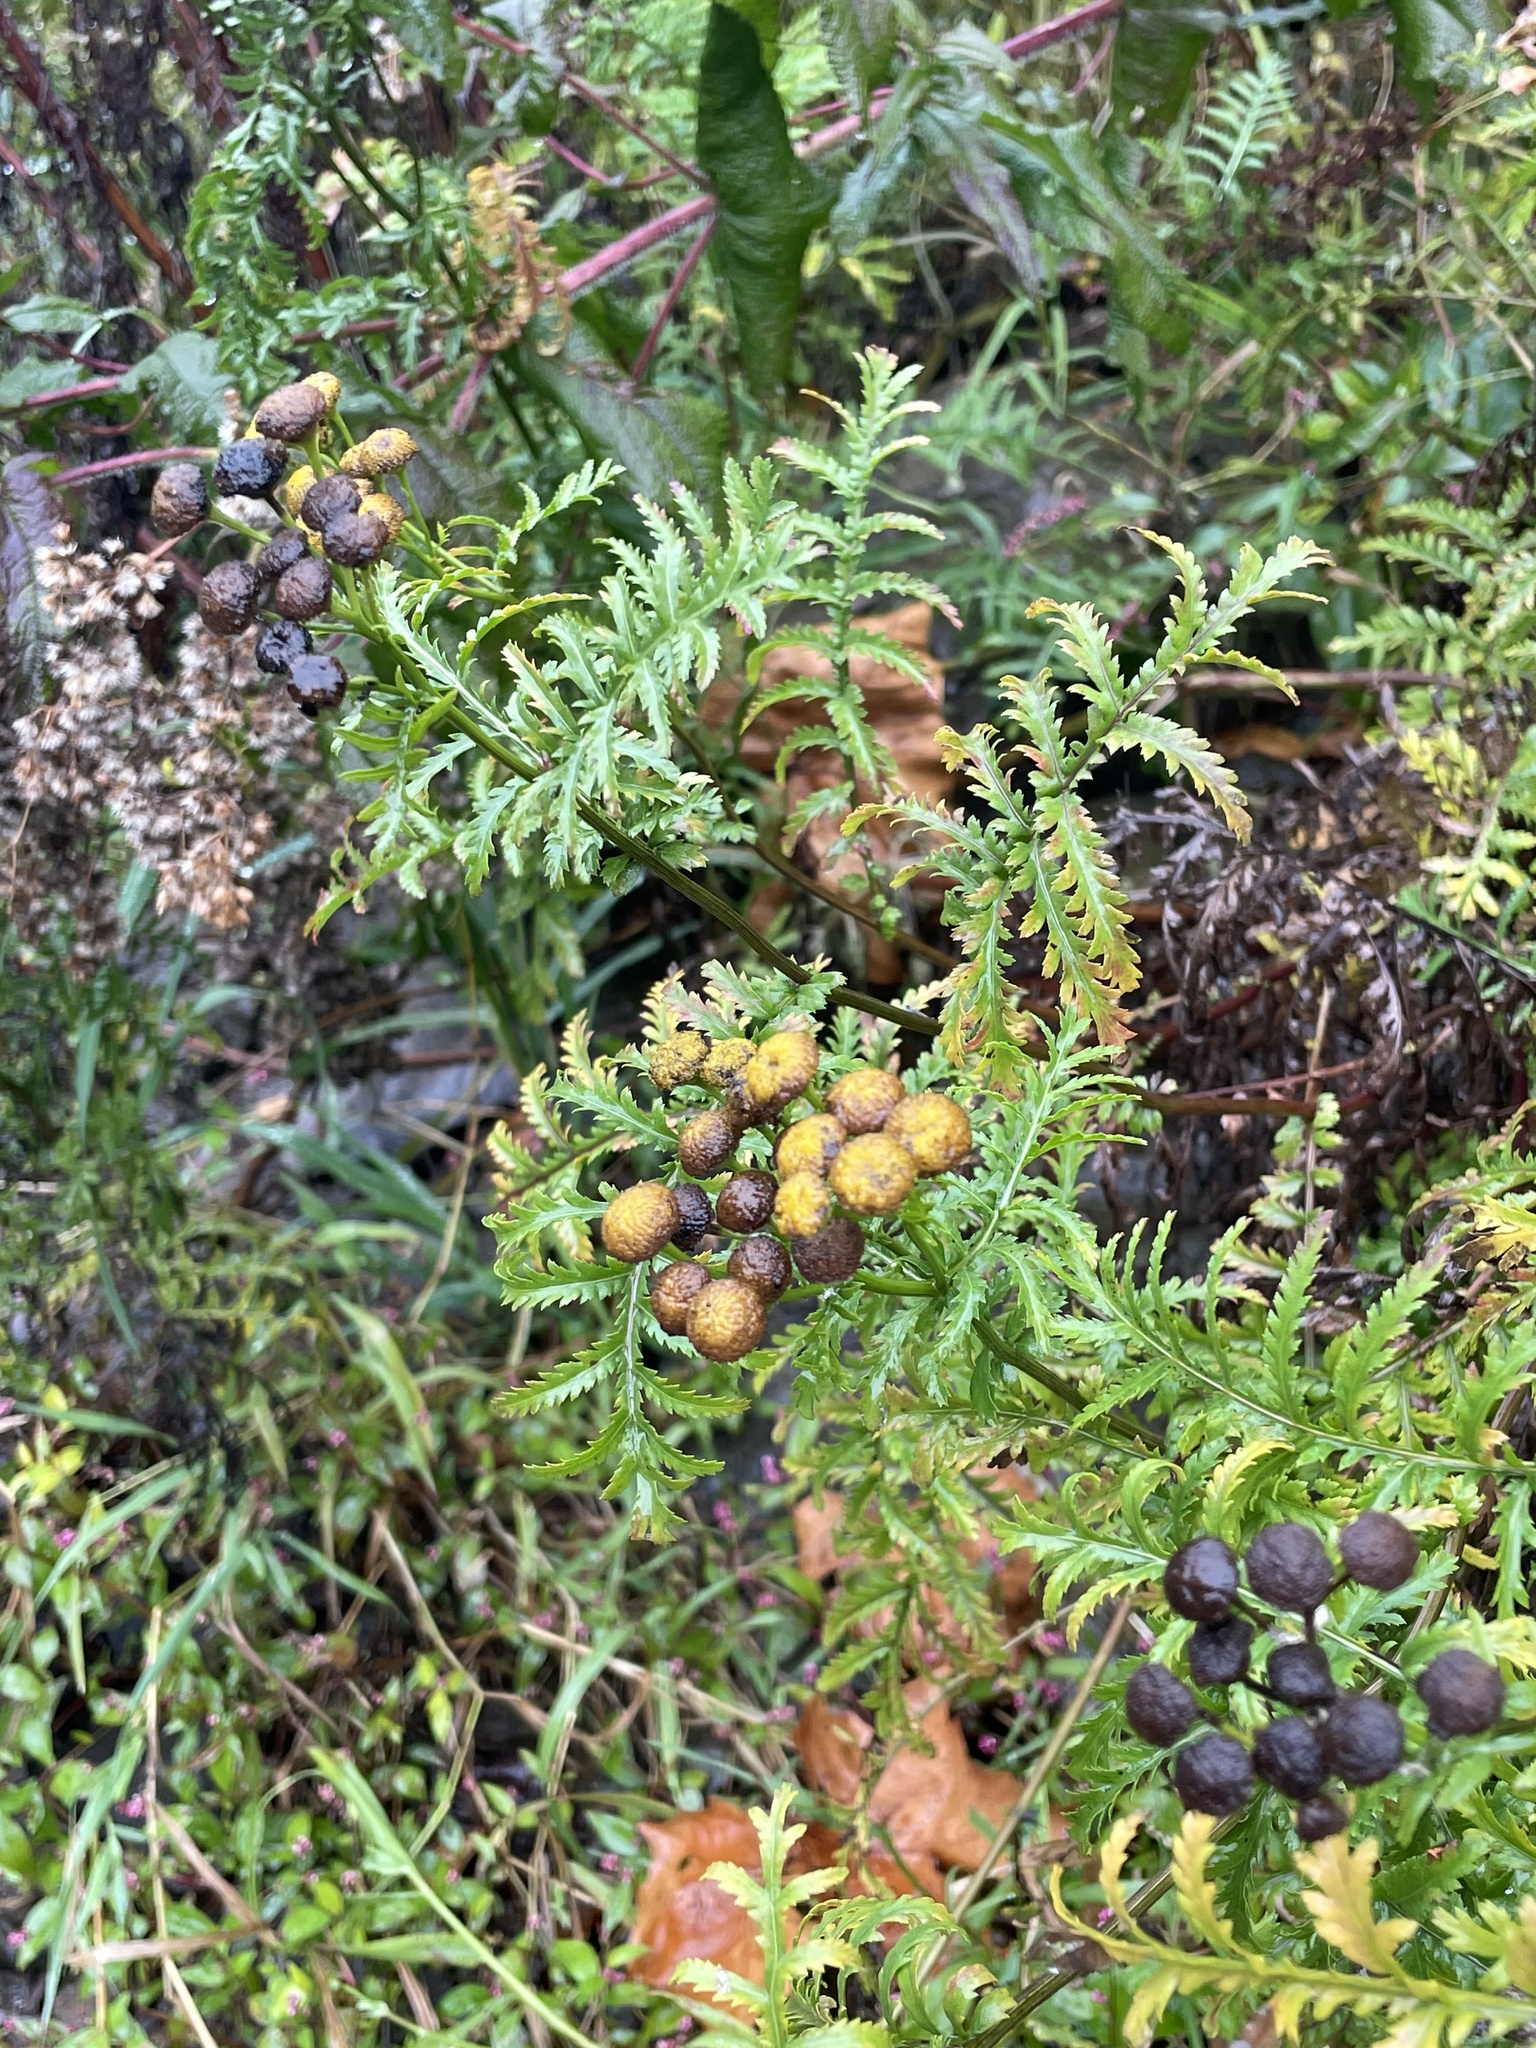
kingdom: Plantae
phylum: Tracheophyta
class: Magnoliopsida
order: Asterales
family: Asteraceae
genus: Tanacetum
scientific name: Tanacetum vulgare
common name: Common tansy
